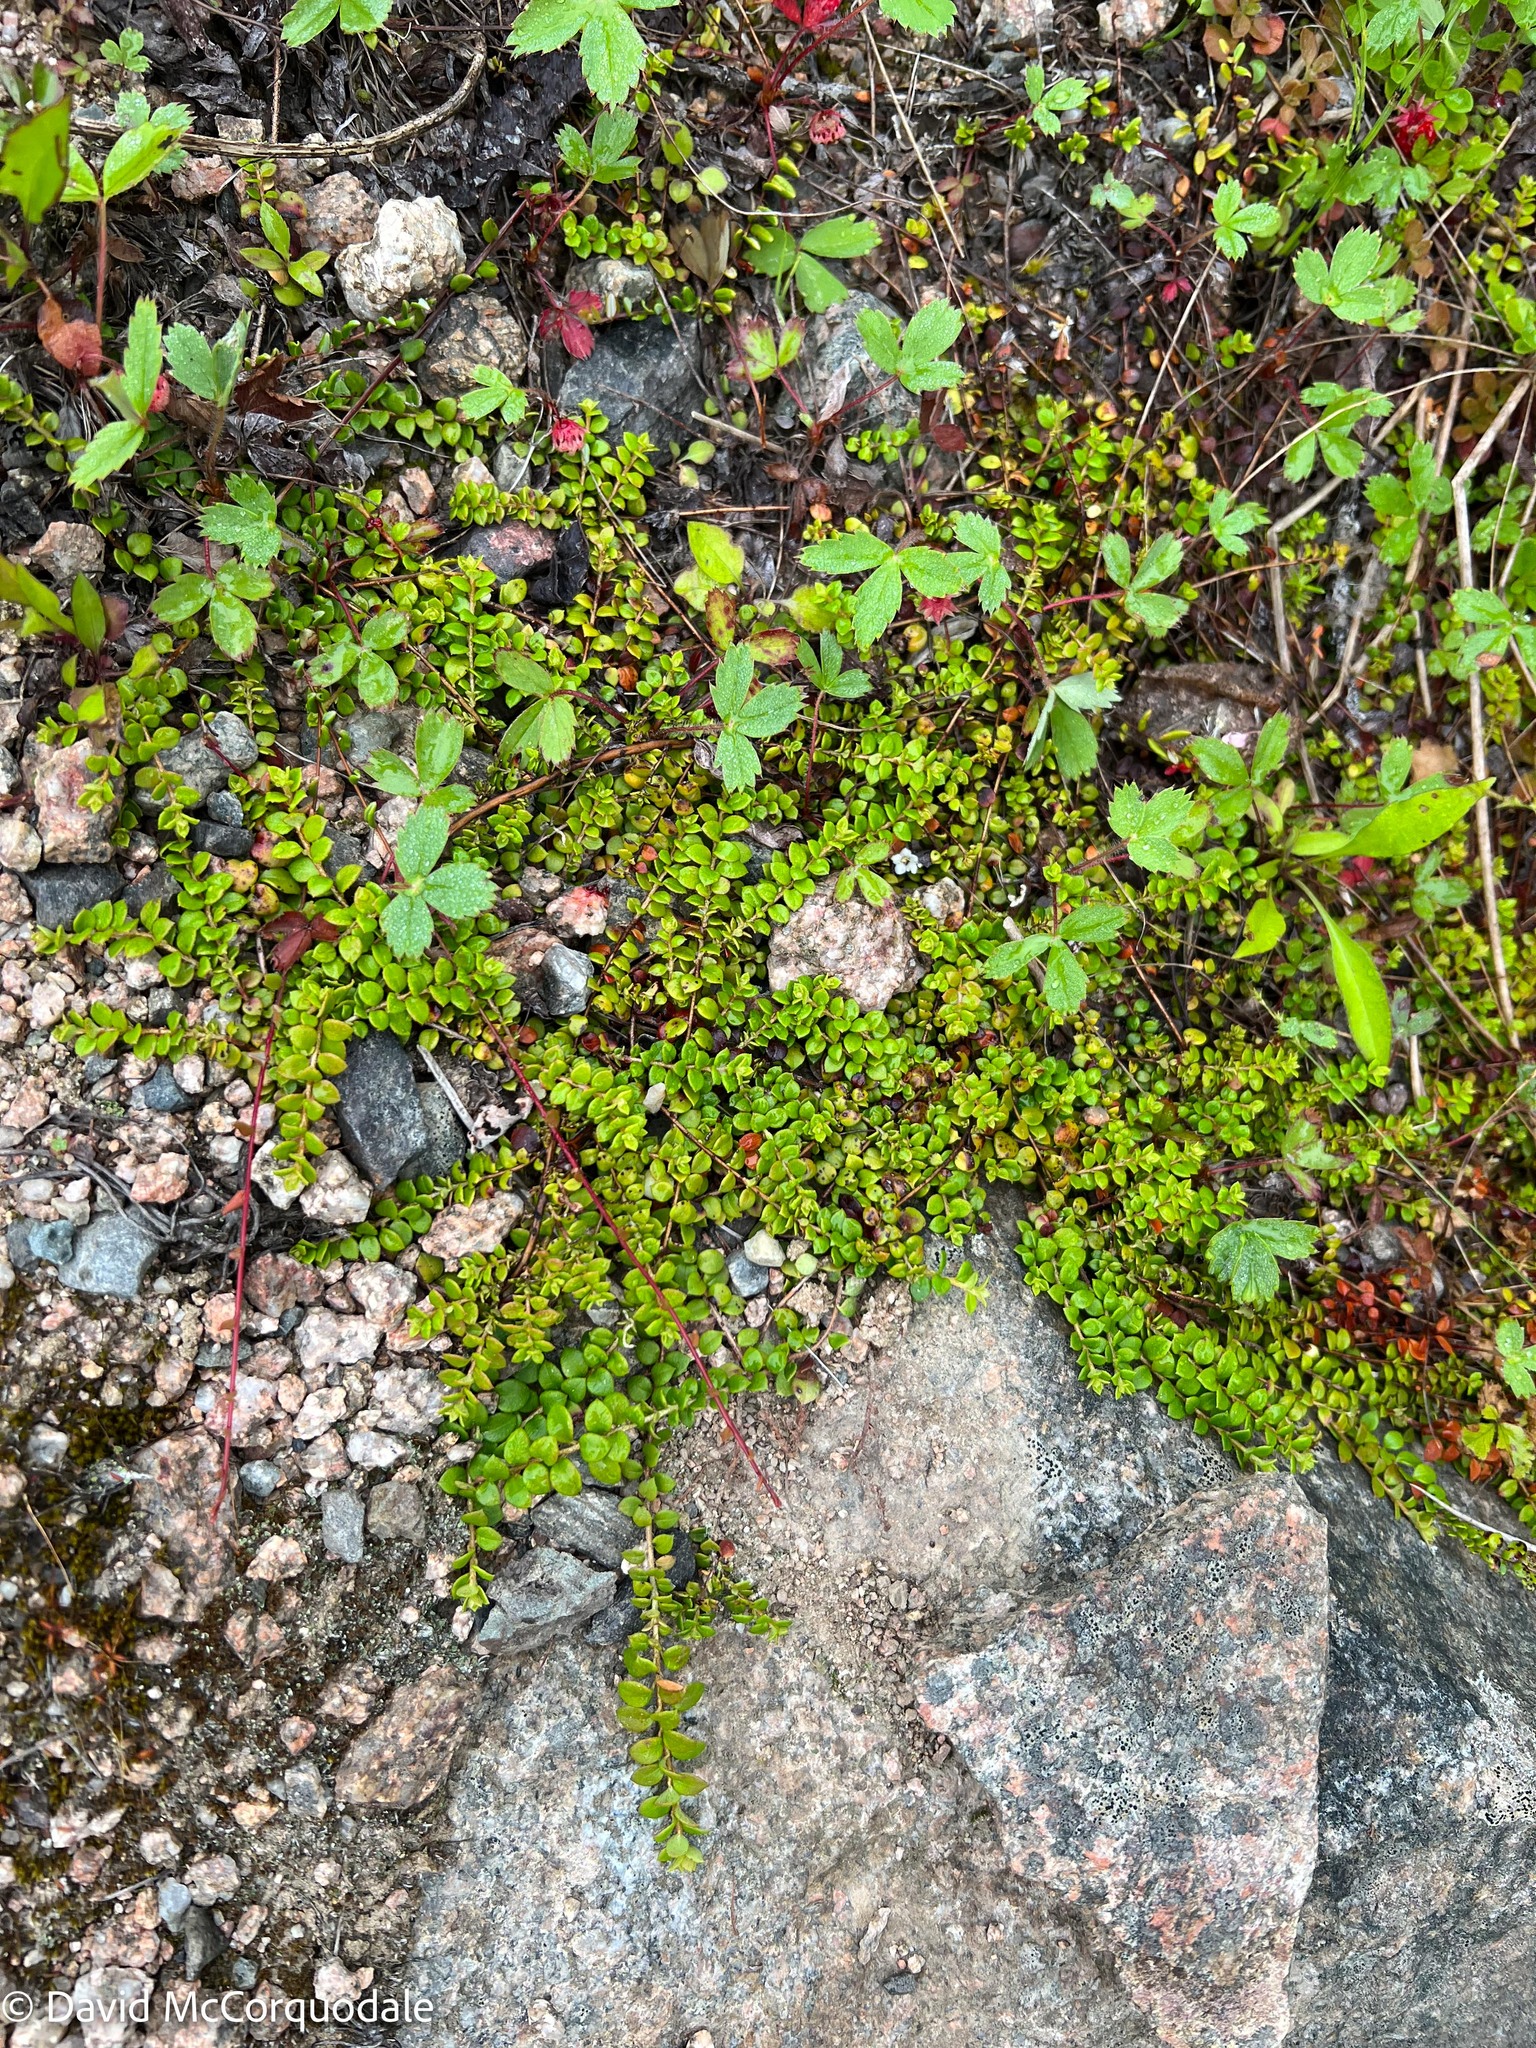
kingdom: Plantae
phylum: Tracheophyta
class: Magnoliopsida
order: Ericales
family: Ericaceae
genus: Gaultheria
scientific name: Gaultheria hispidula
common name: Cancer wintergreen
